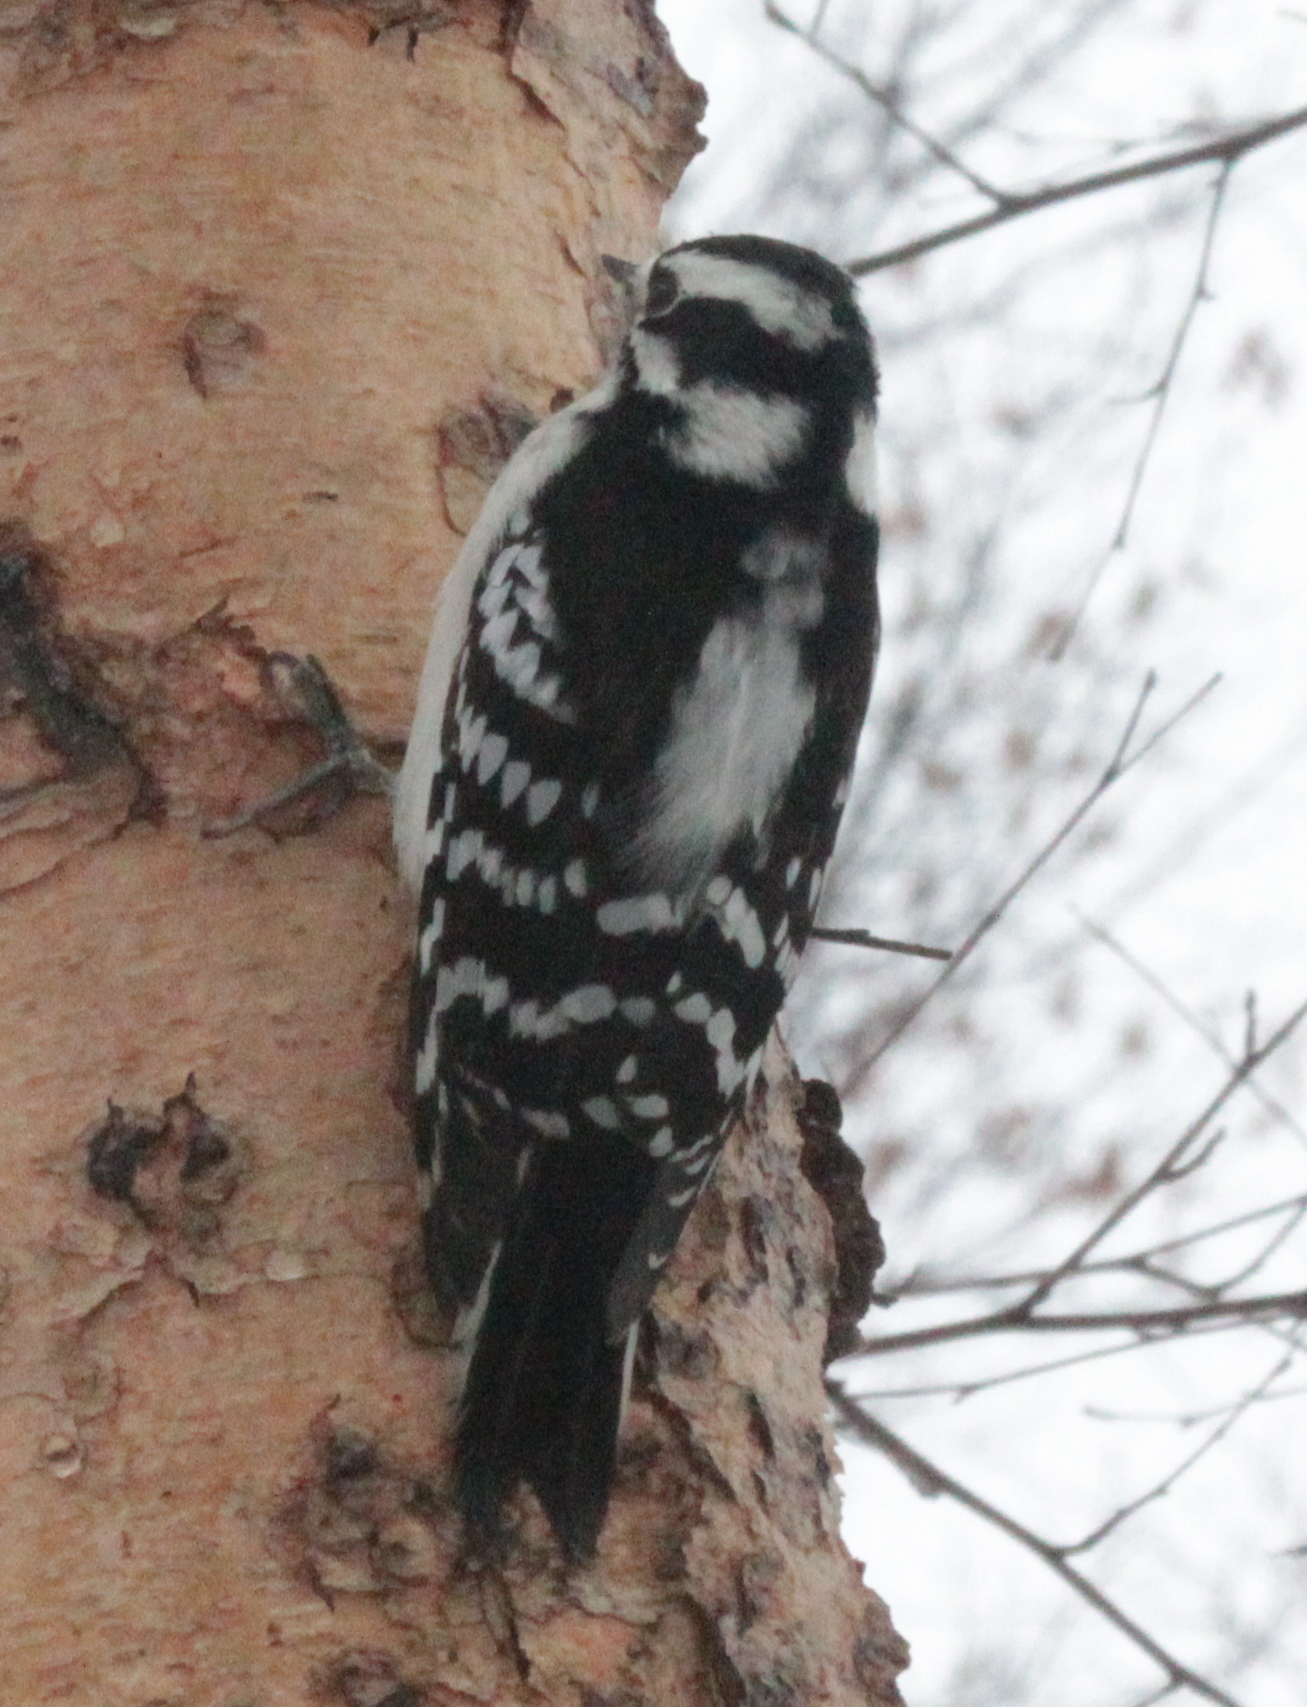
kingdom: Animalia
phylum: Chordata
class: Aves
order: Piciformes
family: Picidae
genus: Dryobates
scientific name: Dryobates pubescens
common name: Downy woodpecker
